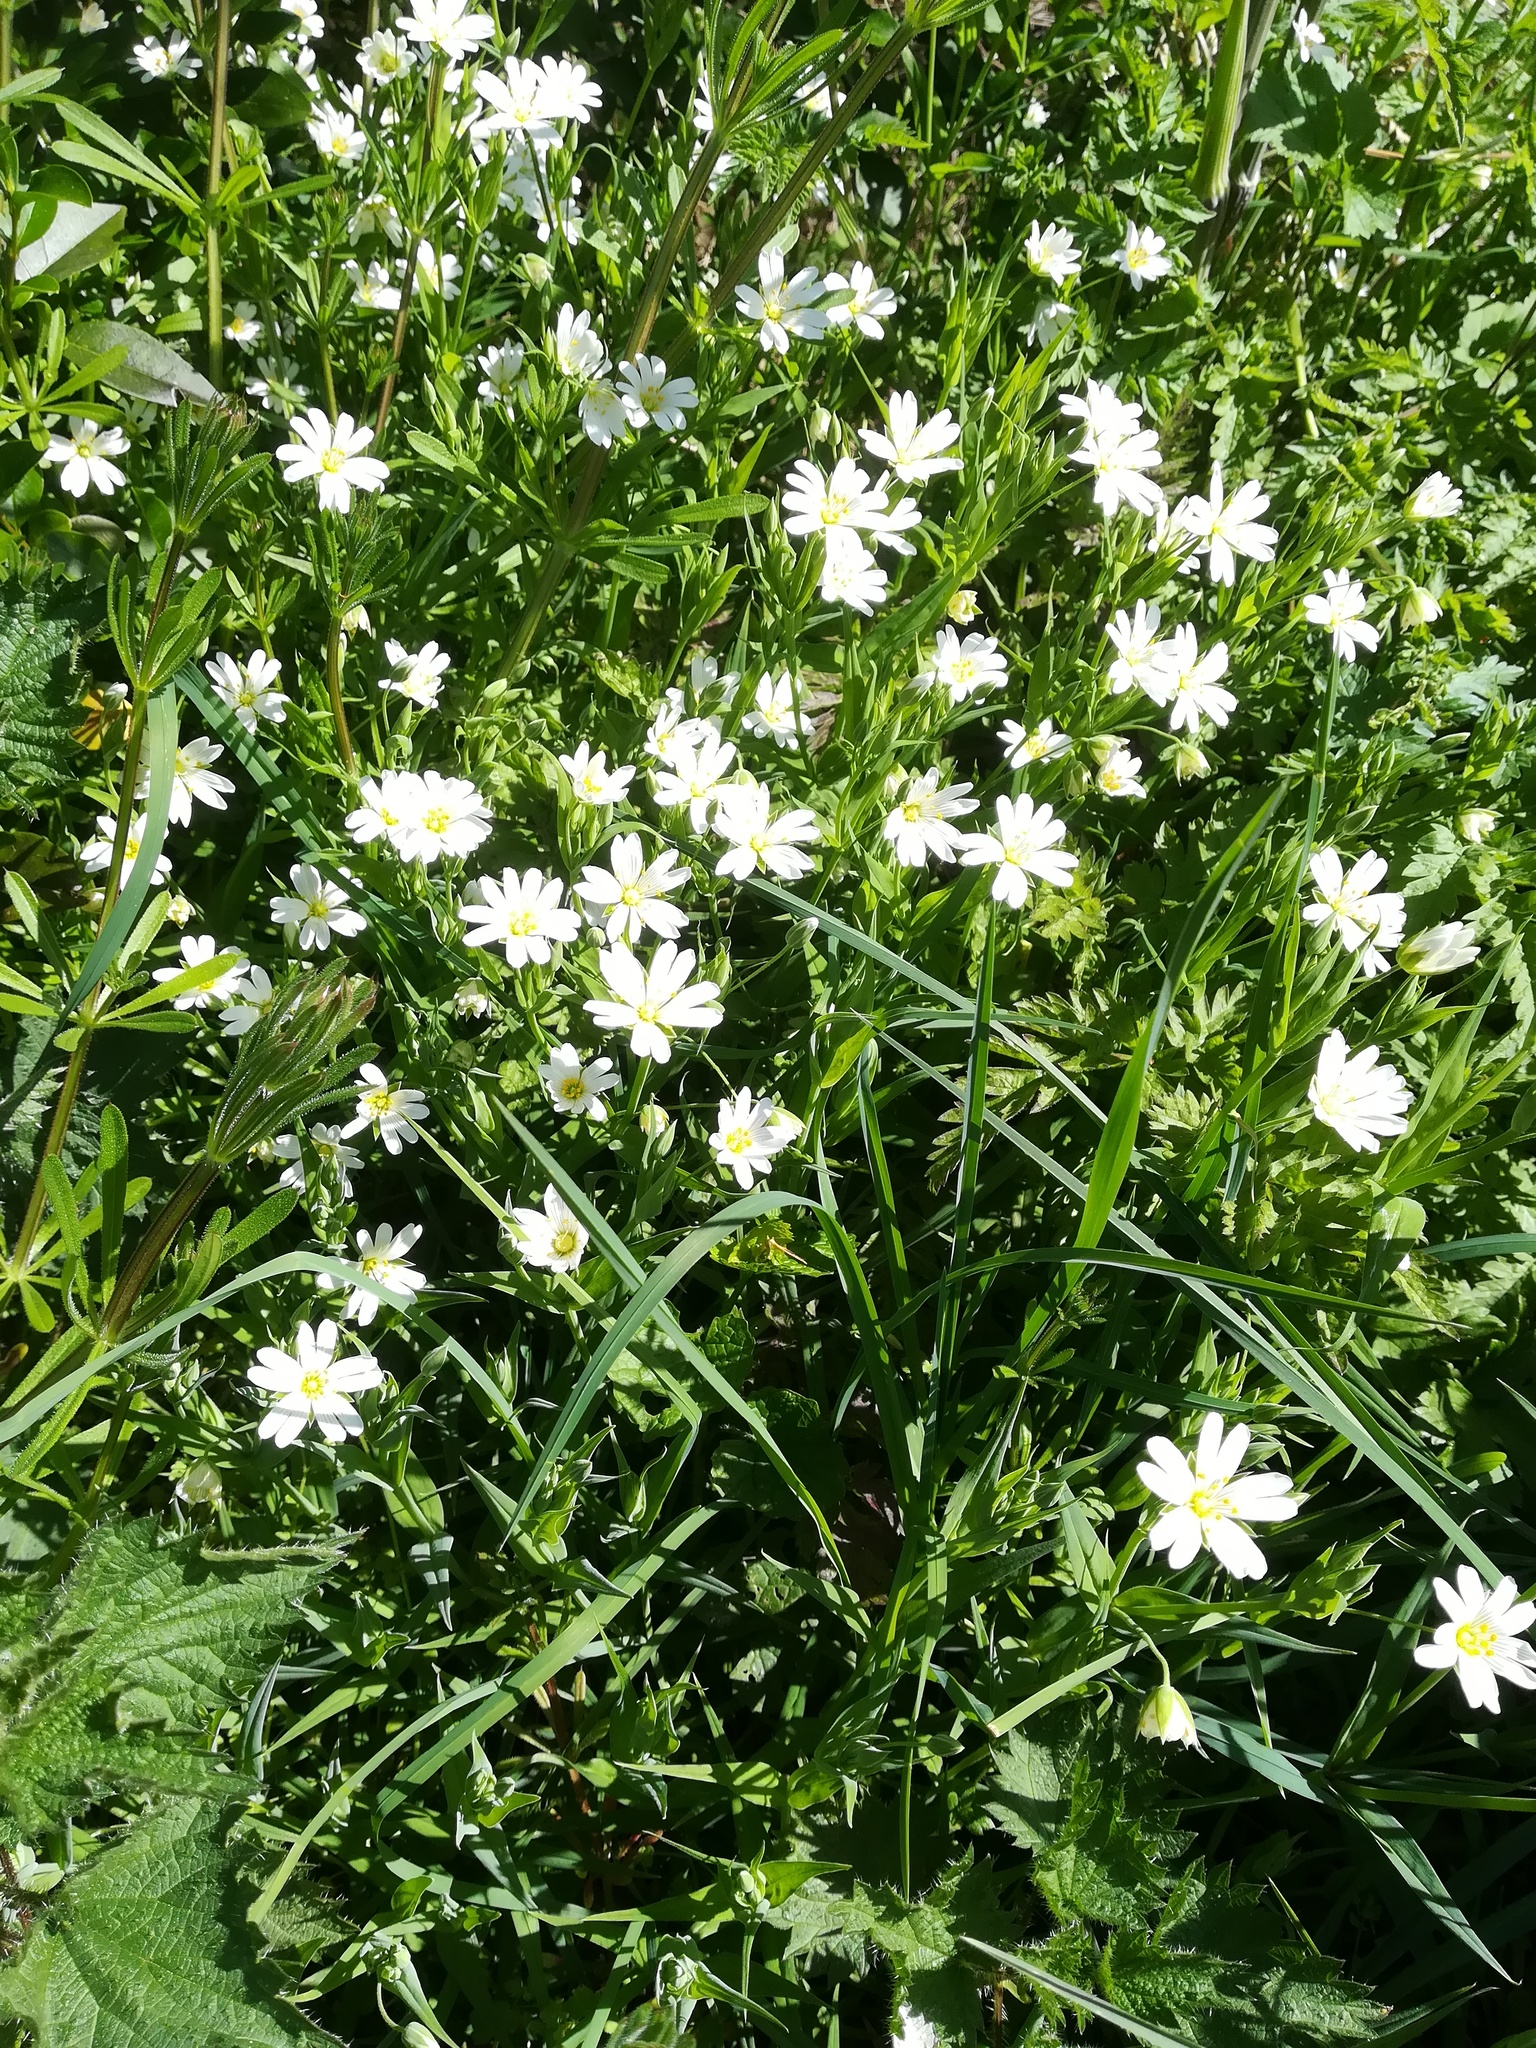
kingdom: Plantae
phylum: Tracheophyta
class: Magnoliopsida
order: Caryophyllales
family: Caryophyllaceae
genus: Rabelera
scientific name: Rabelera holostea
